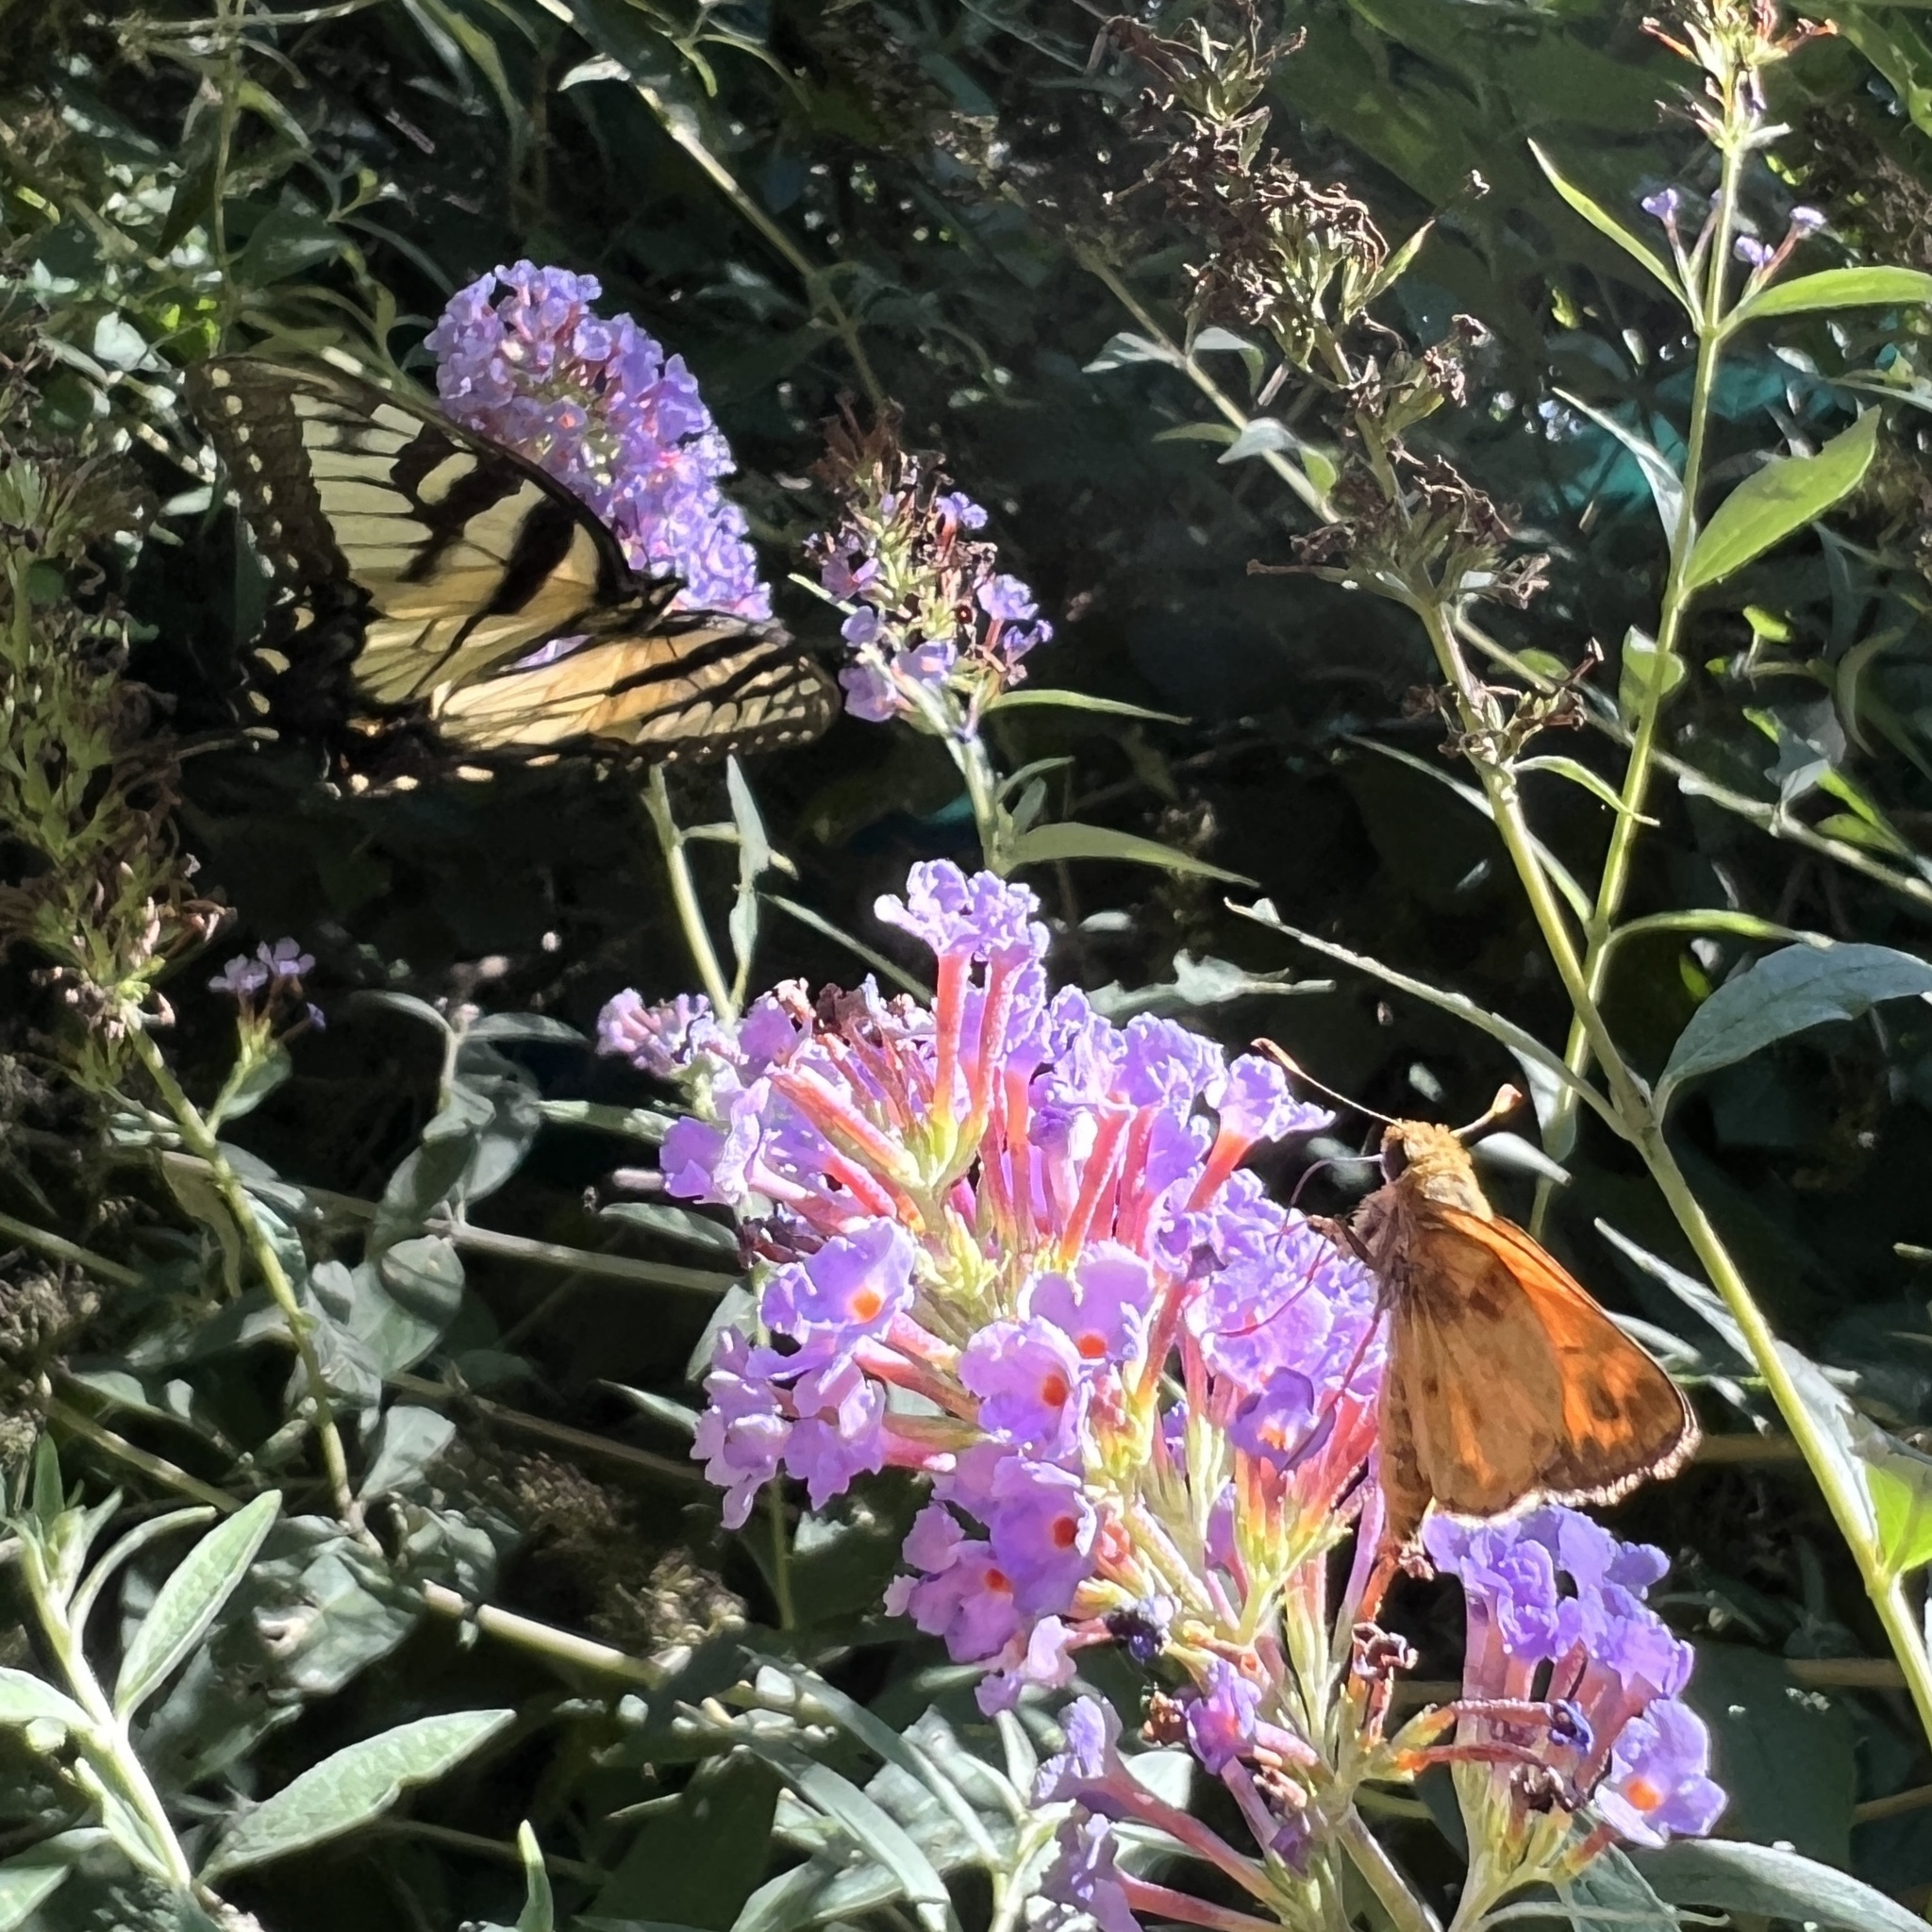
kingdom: Animalia
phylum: Arthropoda
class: Insecta
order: Lepidoptera
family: Hesperiidae
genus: Lon
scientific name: Lon zabulon
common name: Zabulon skipper
